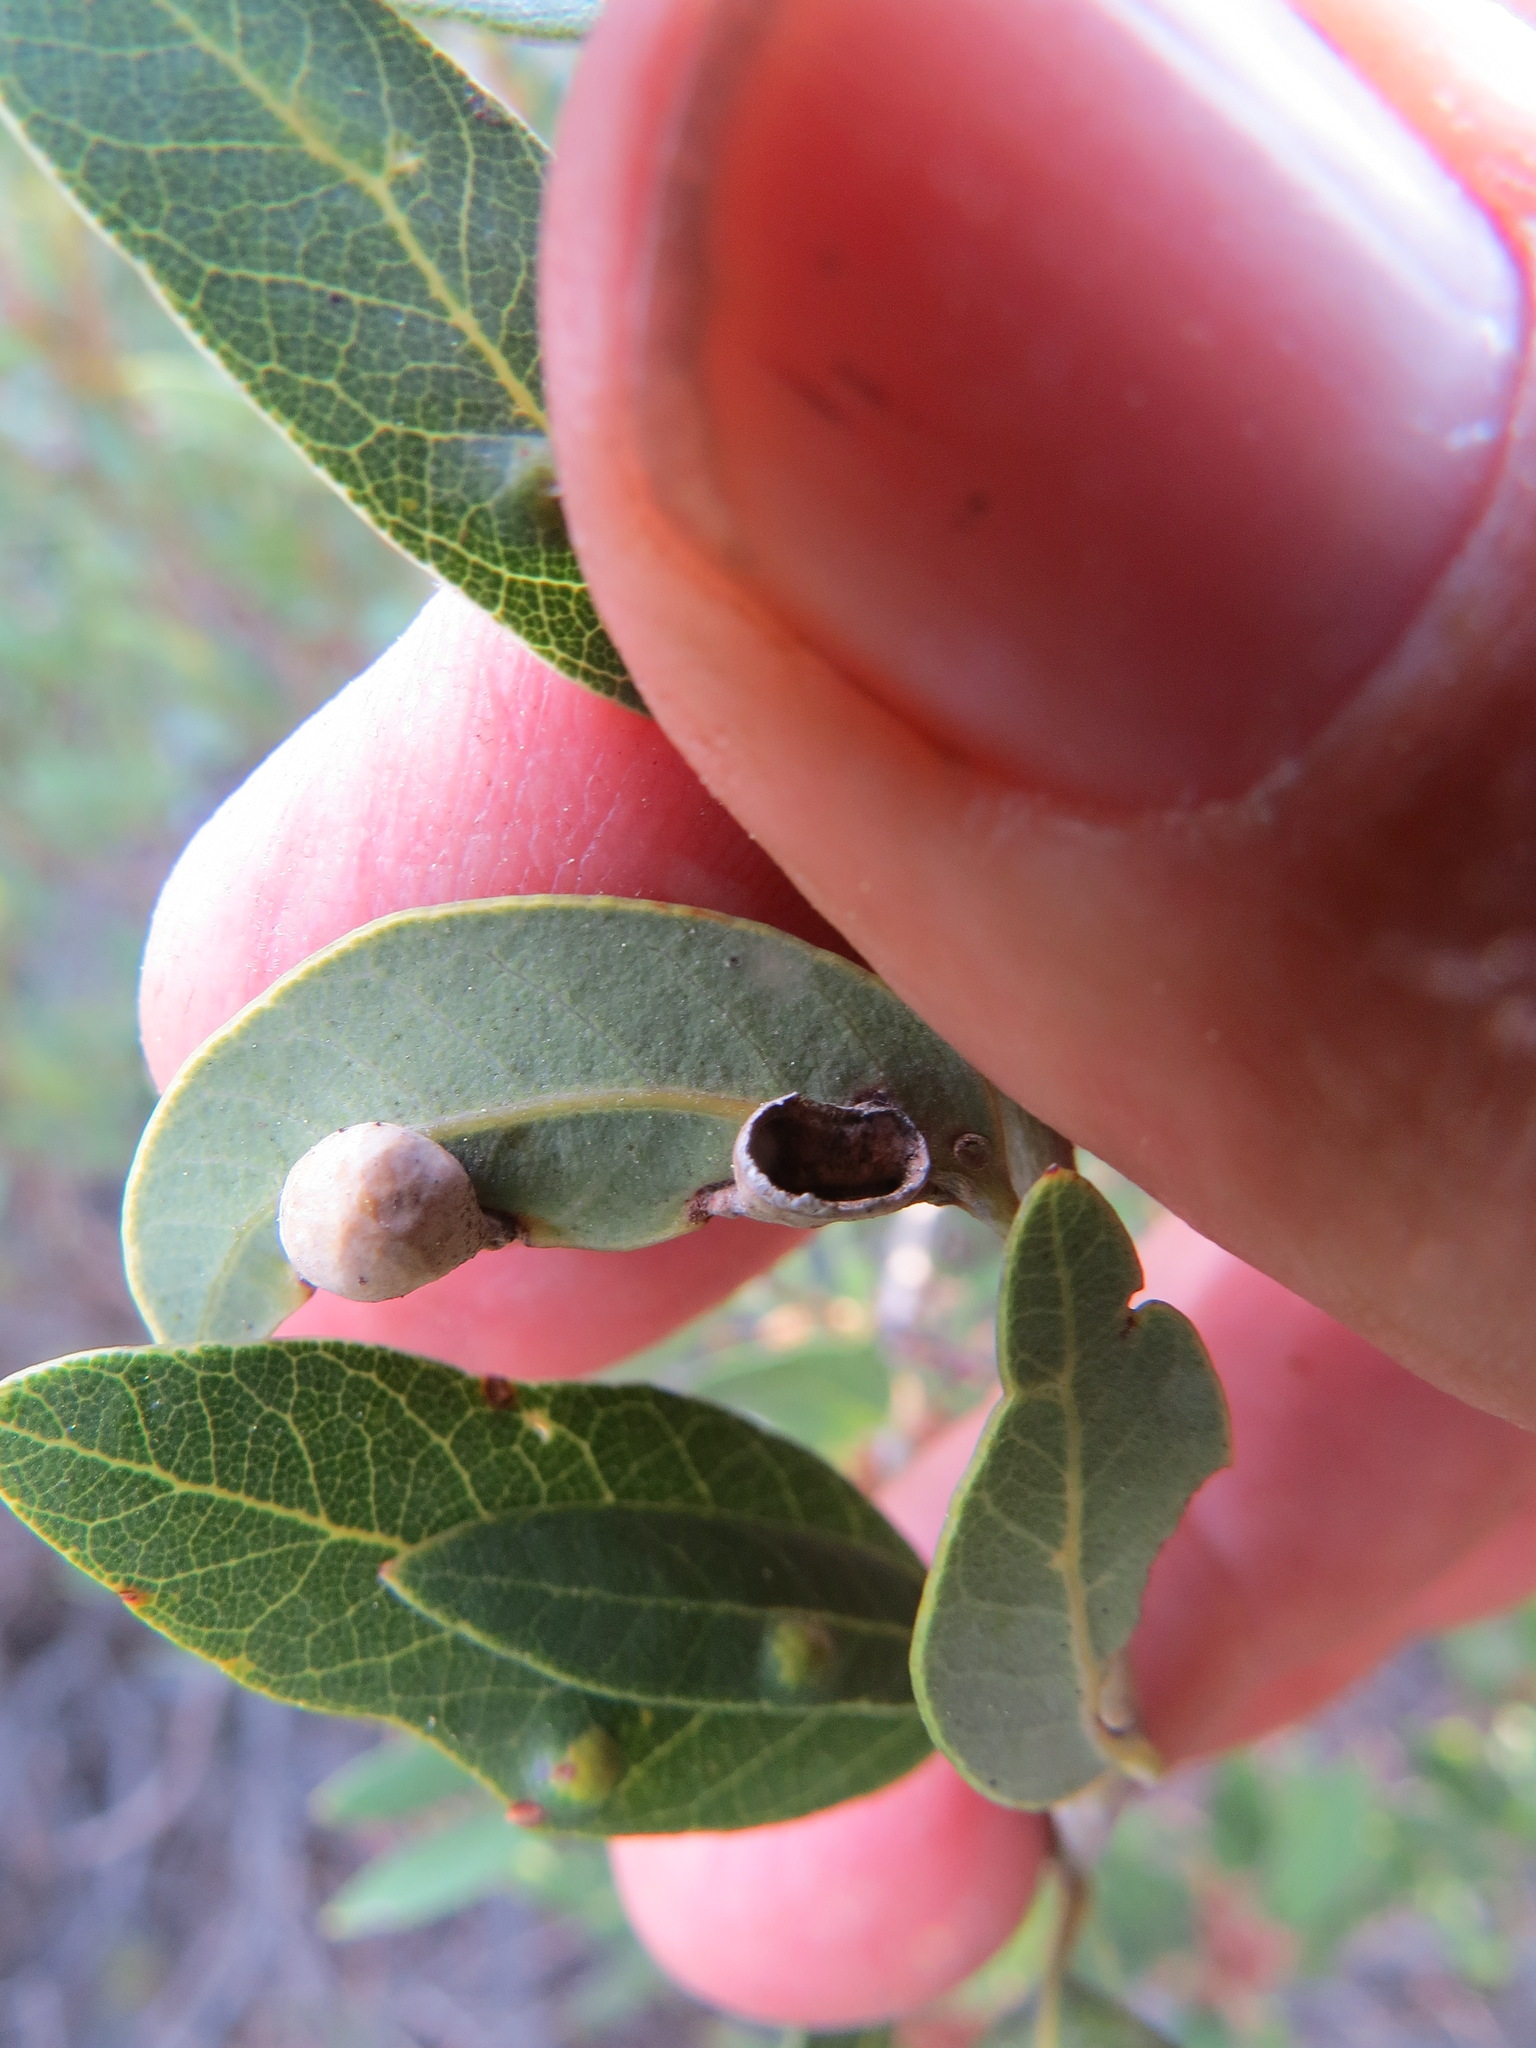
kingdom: Animalia
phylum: Arthropoda
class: Insecta
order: Diptera
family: Cecidomyiidae
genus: Dasineura
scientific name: Dasineura
